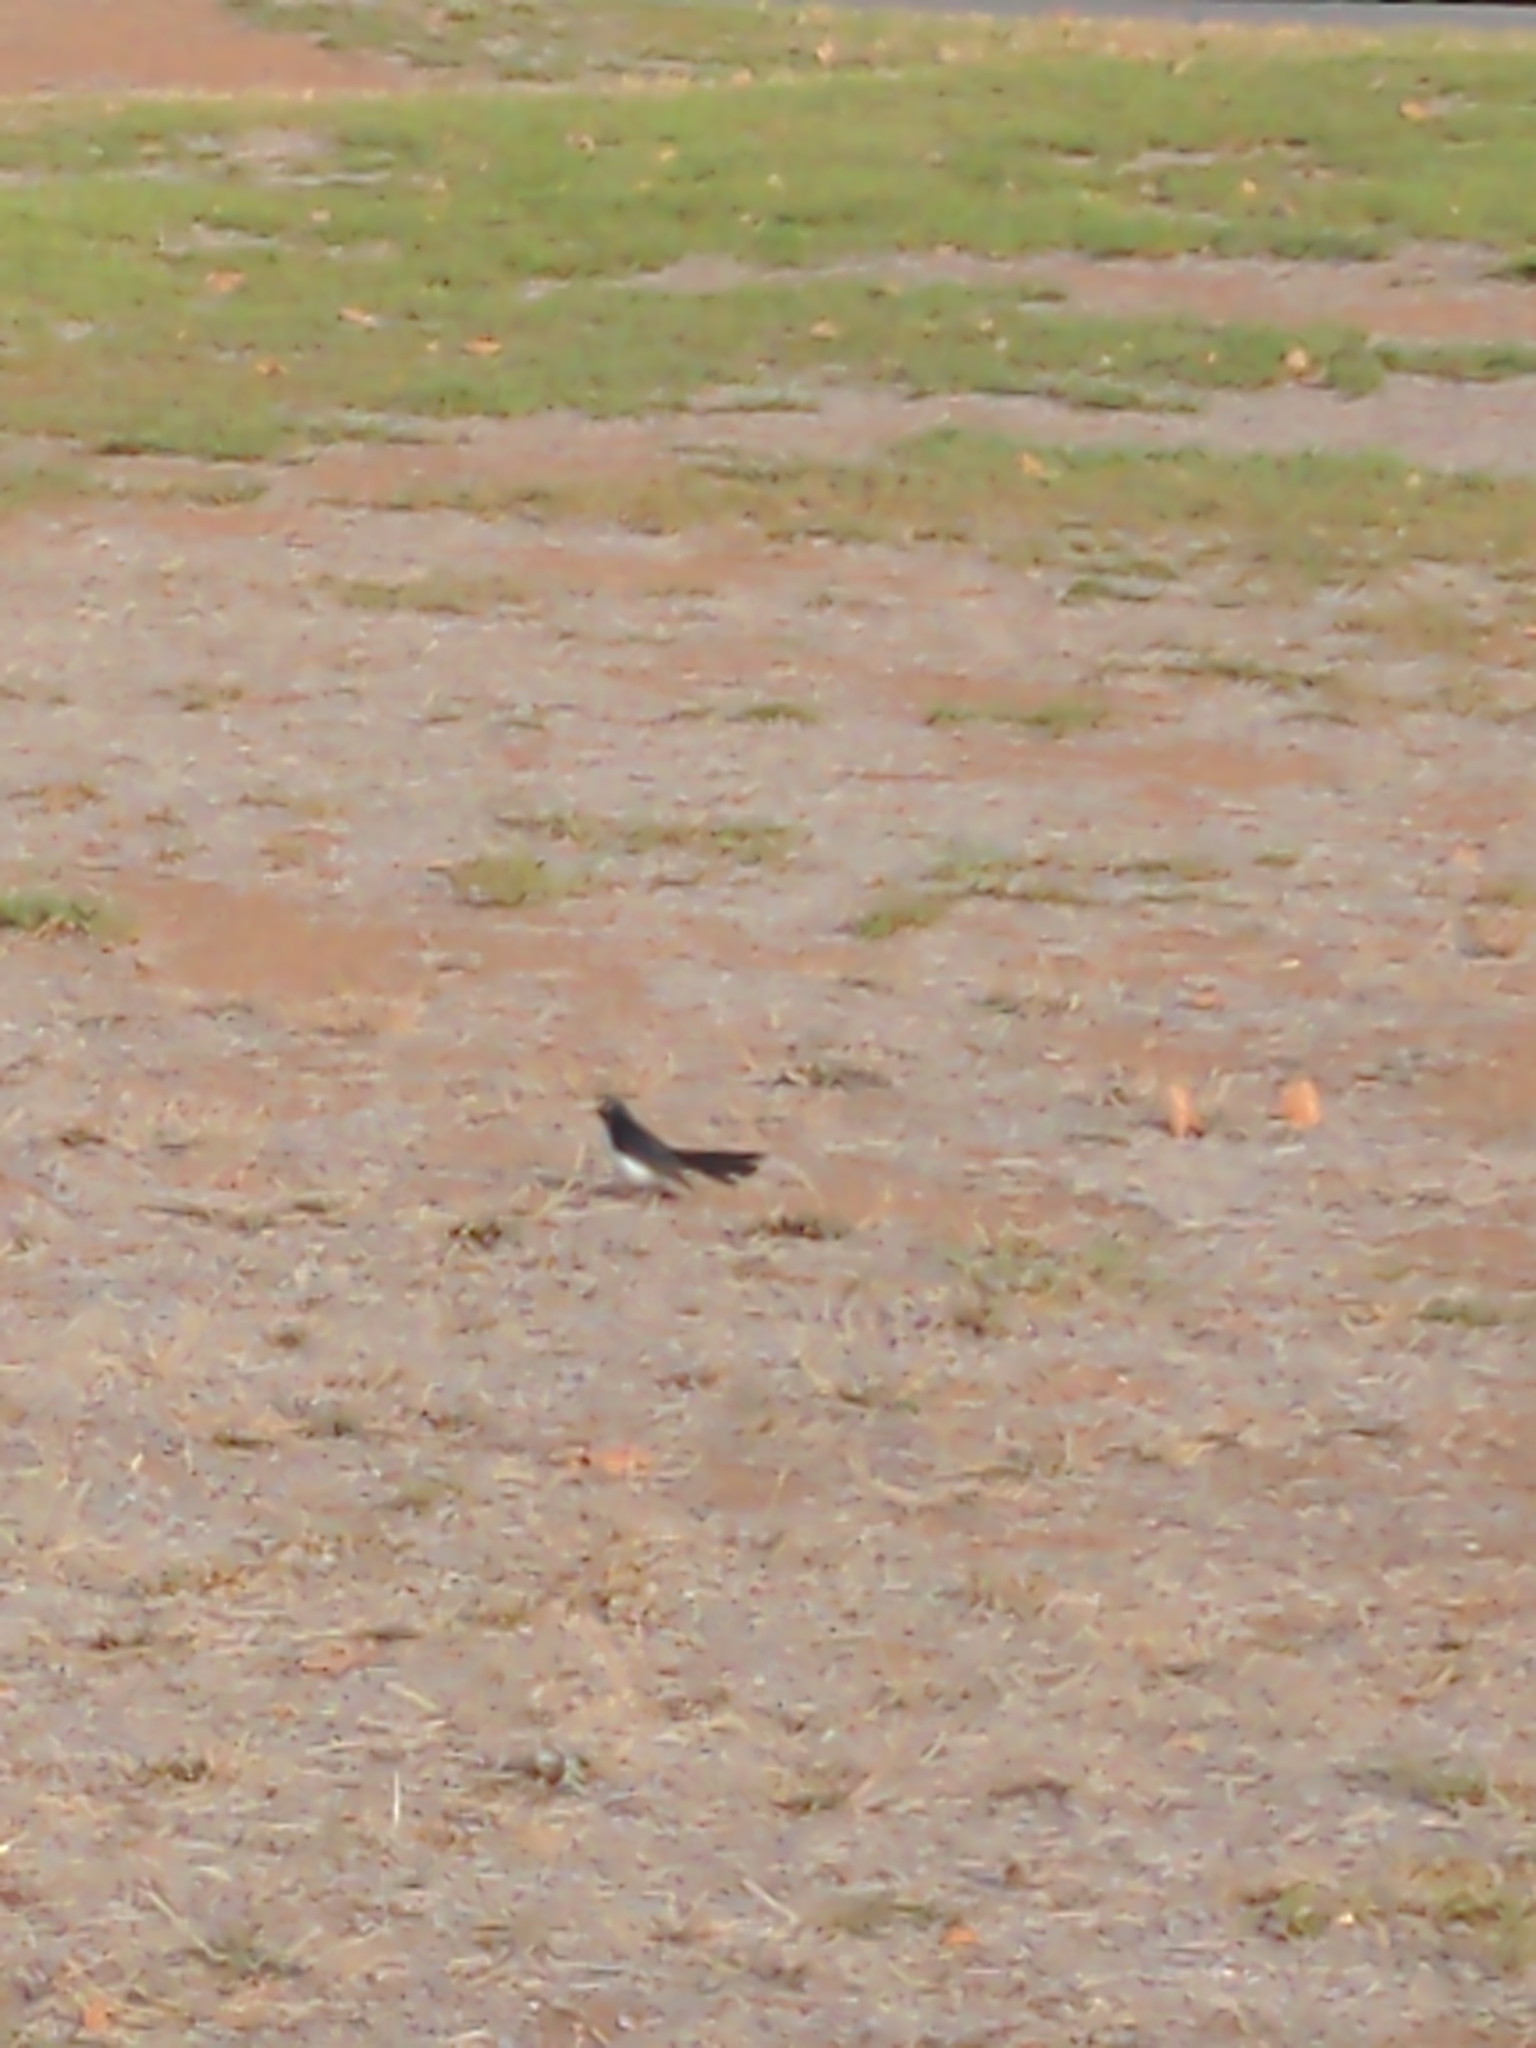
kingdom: Animalia
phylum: Chordata
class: Aves
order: Passeriformes
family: Rhipiduridae
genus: Rhipidura
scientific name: Rhipidura leucophrys
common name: Willie wagtail
